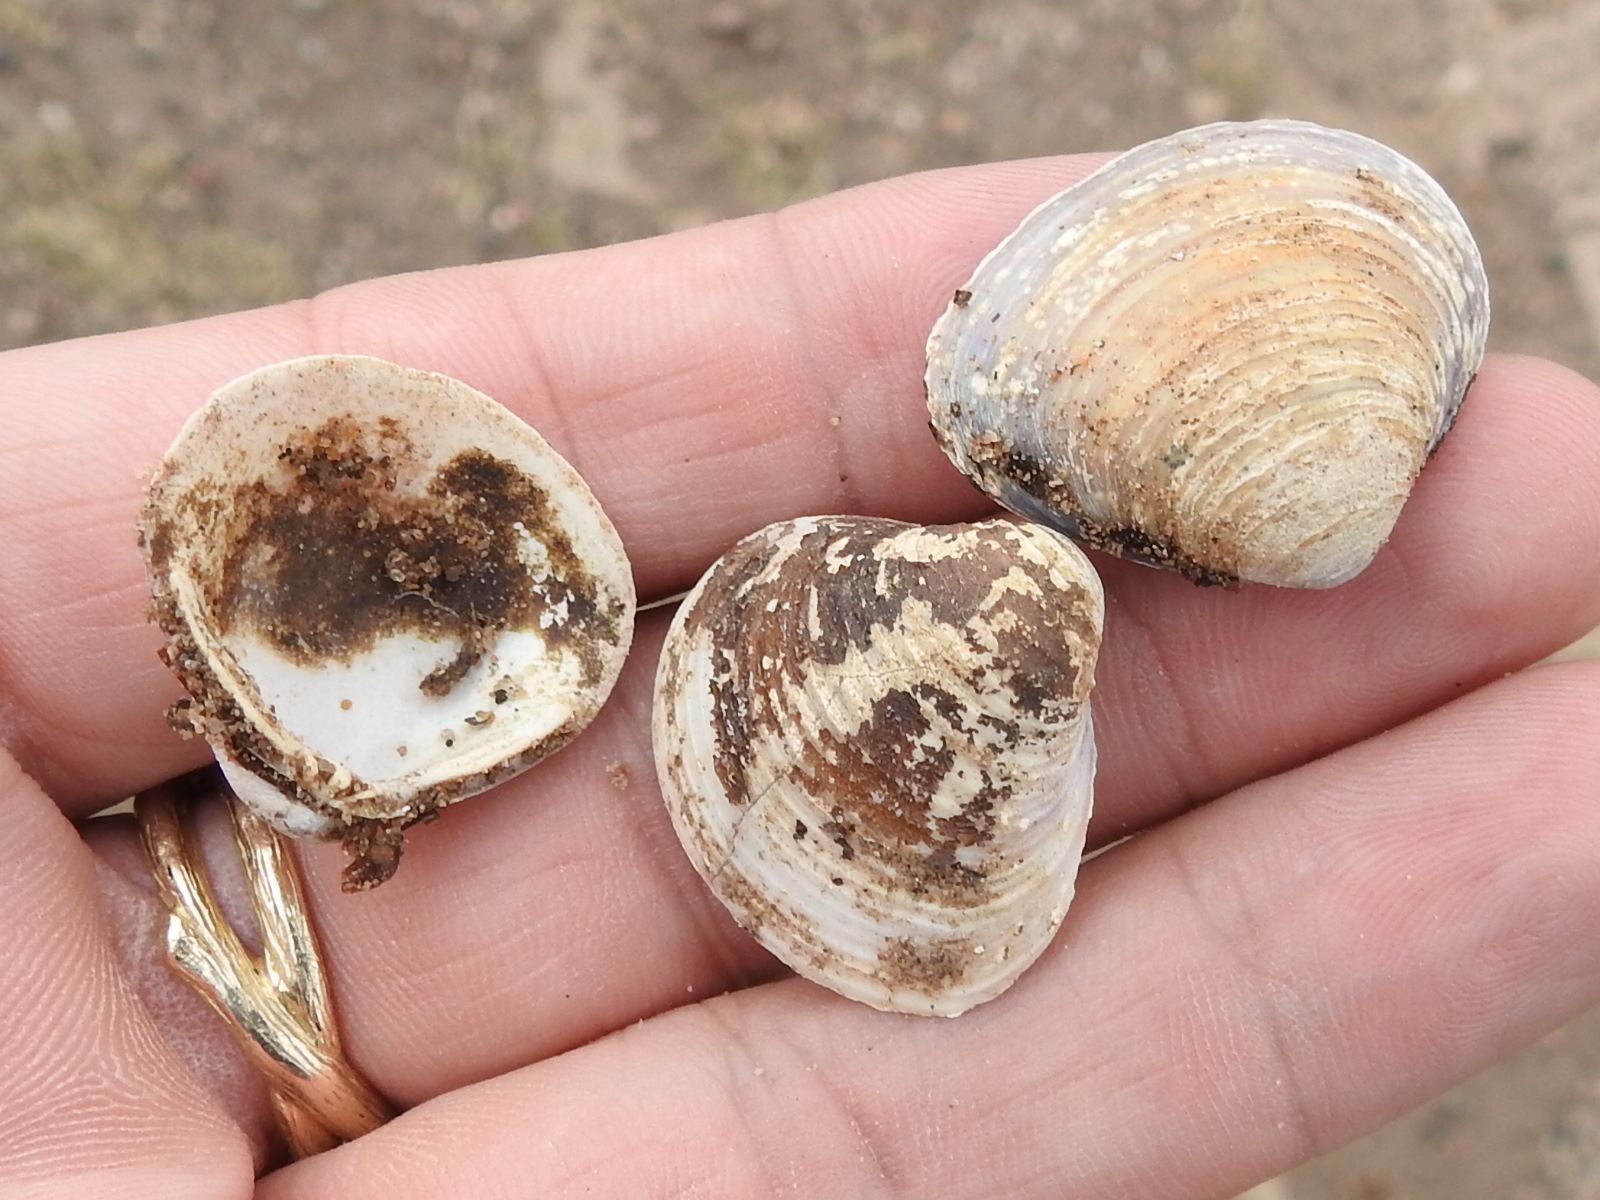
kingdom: Animalia
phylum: Mollusca
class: Bivalvia
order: Venerida
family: Cyrenidae
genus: Corbicula
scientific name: Corbicula fluminea
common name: Asian clam
